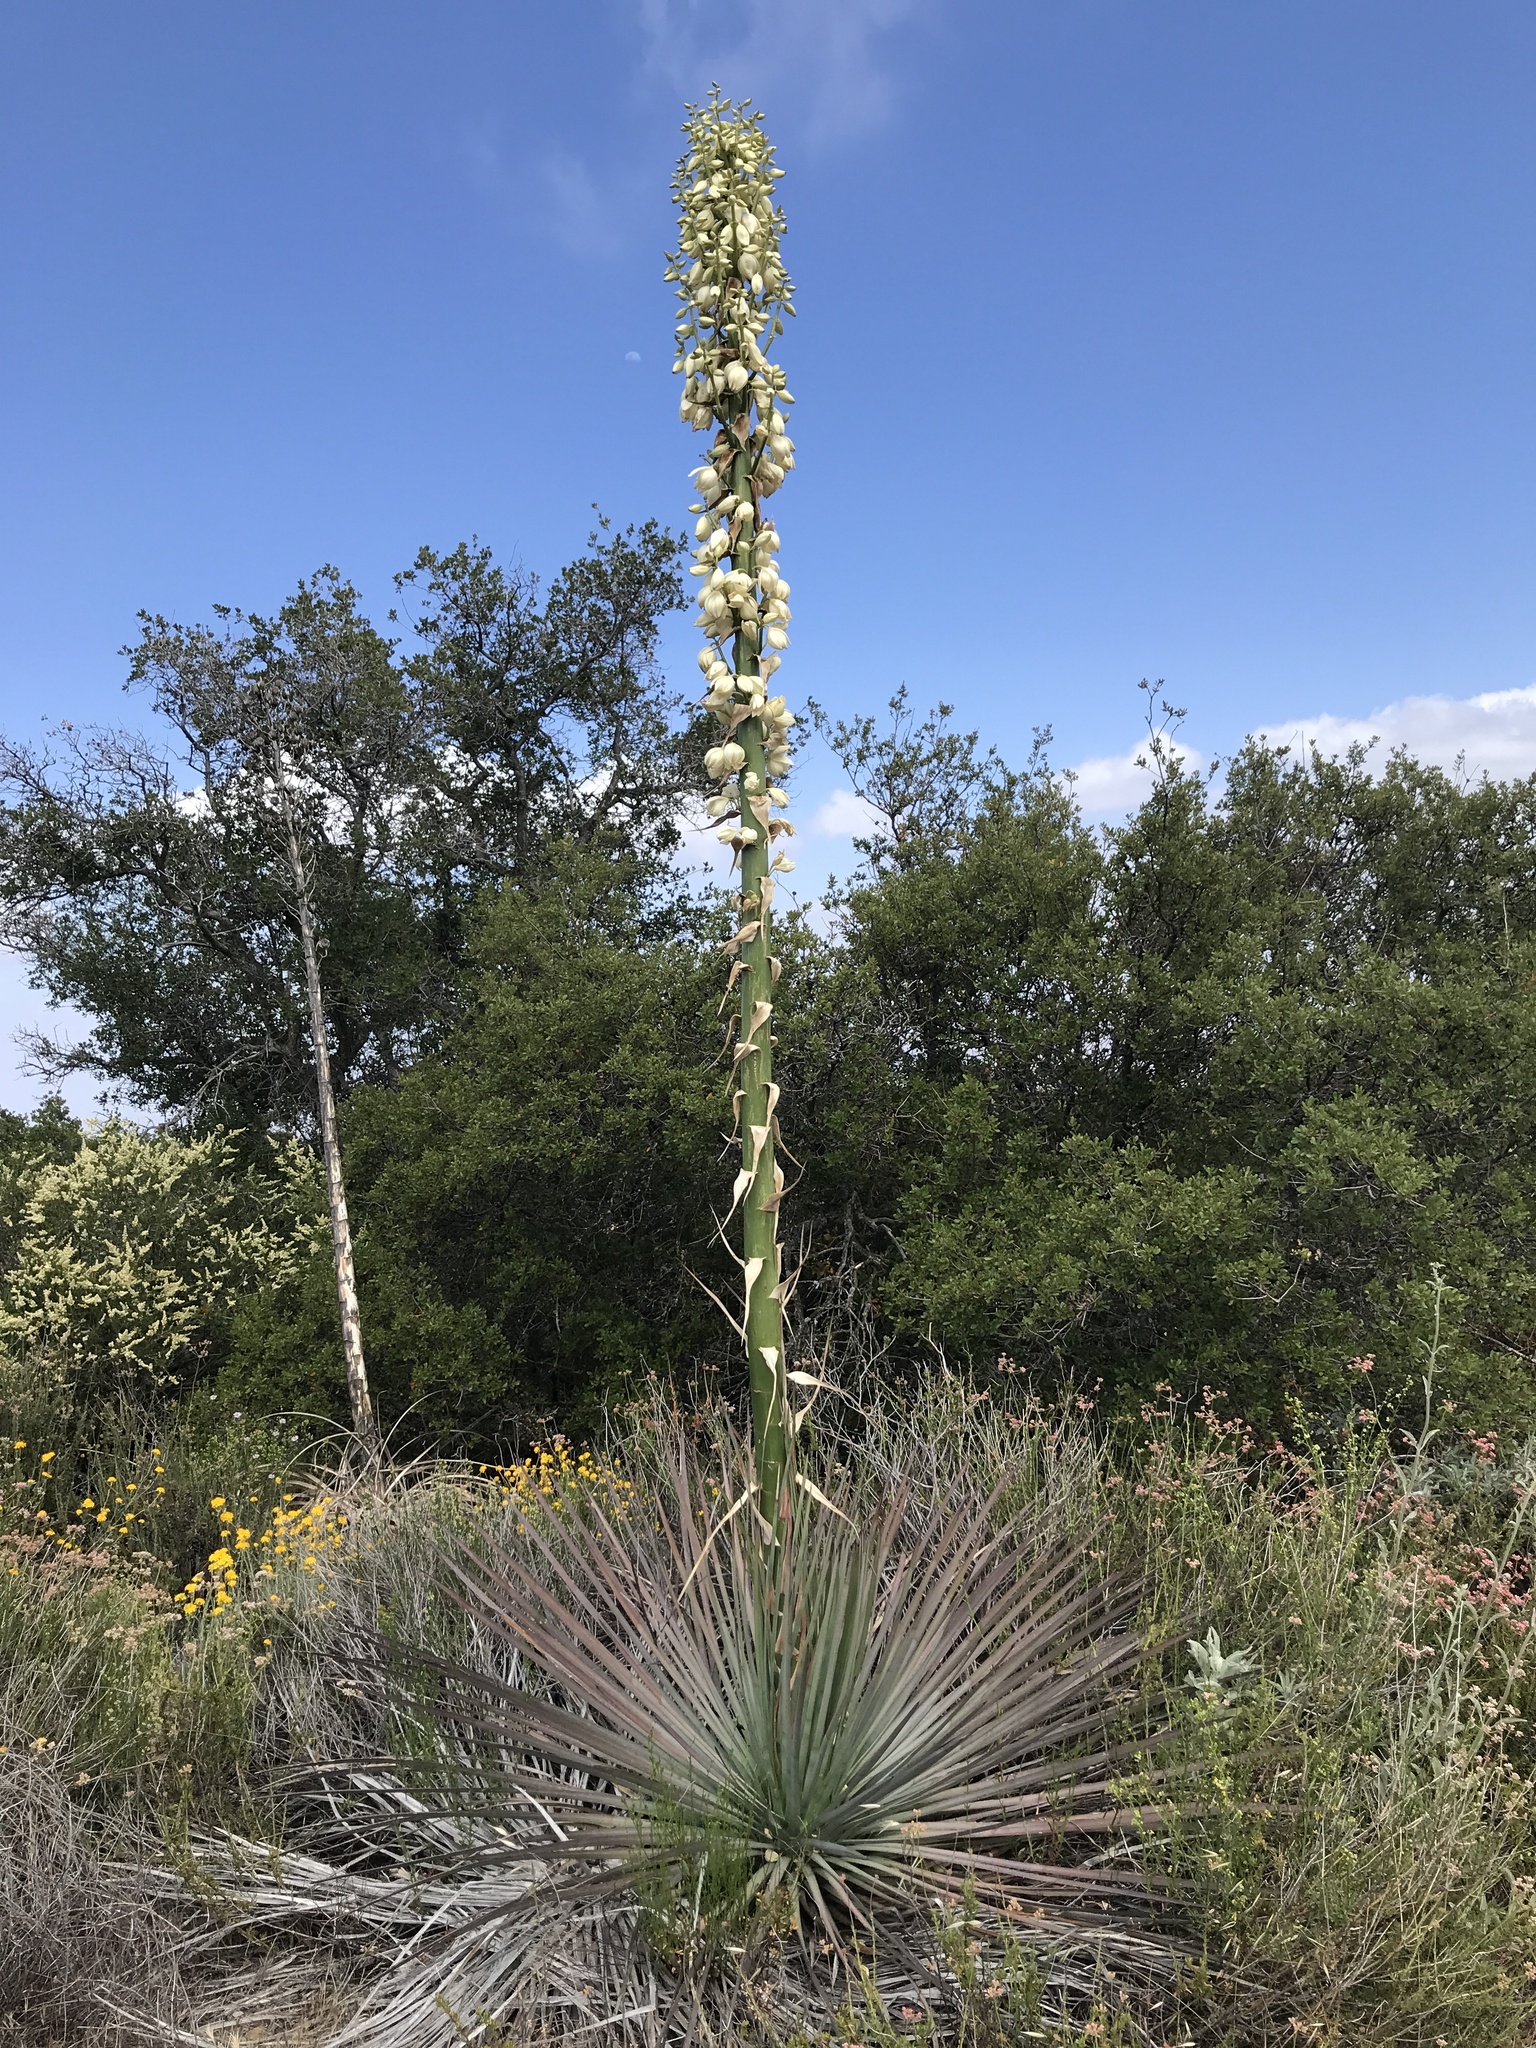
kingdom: Plantae
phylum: Tracheophyta
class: Liliopsida
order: Asparagales
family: Asparagaceae
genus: Hesperoyucca
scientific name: Hesperoyucca whipplei
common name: Our lord's-candle
